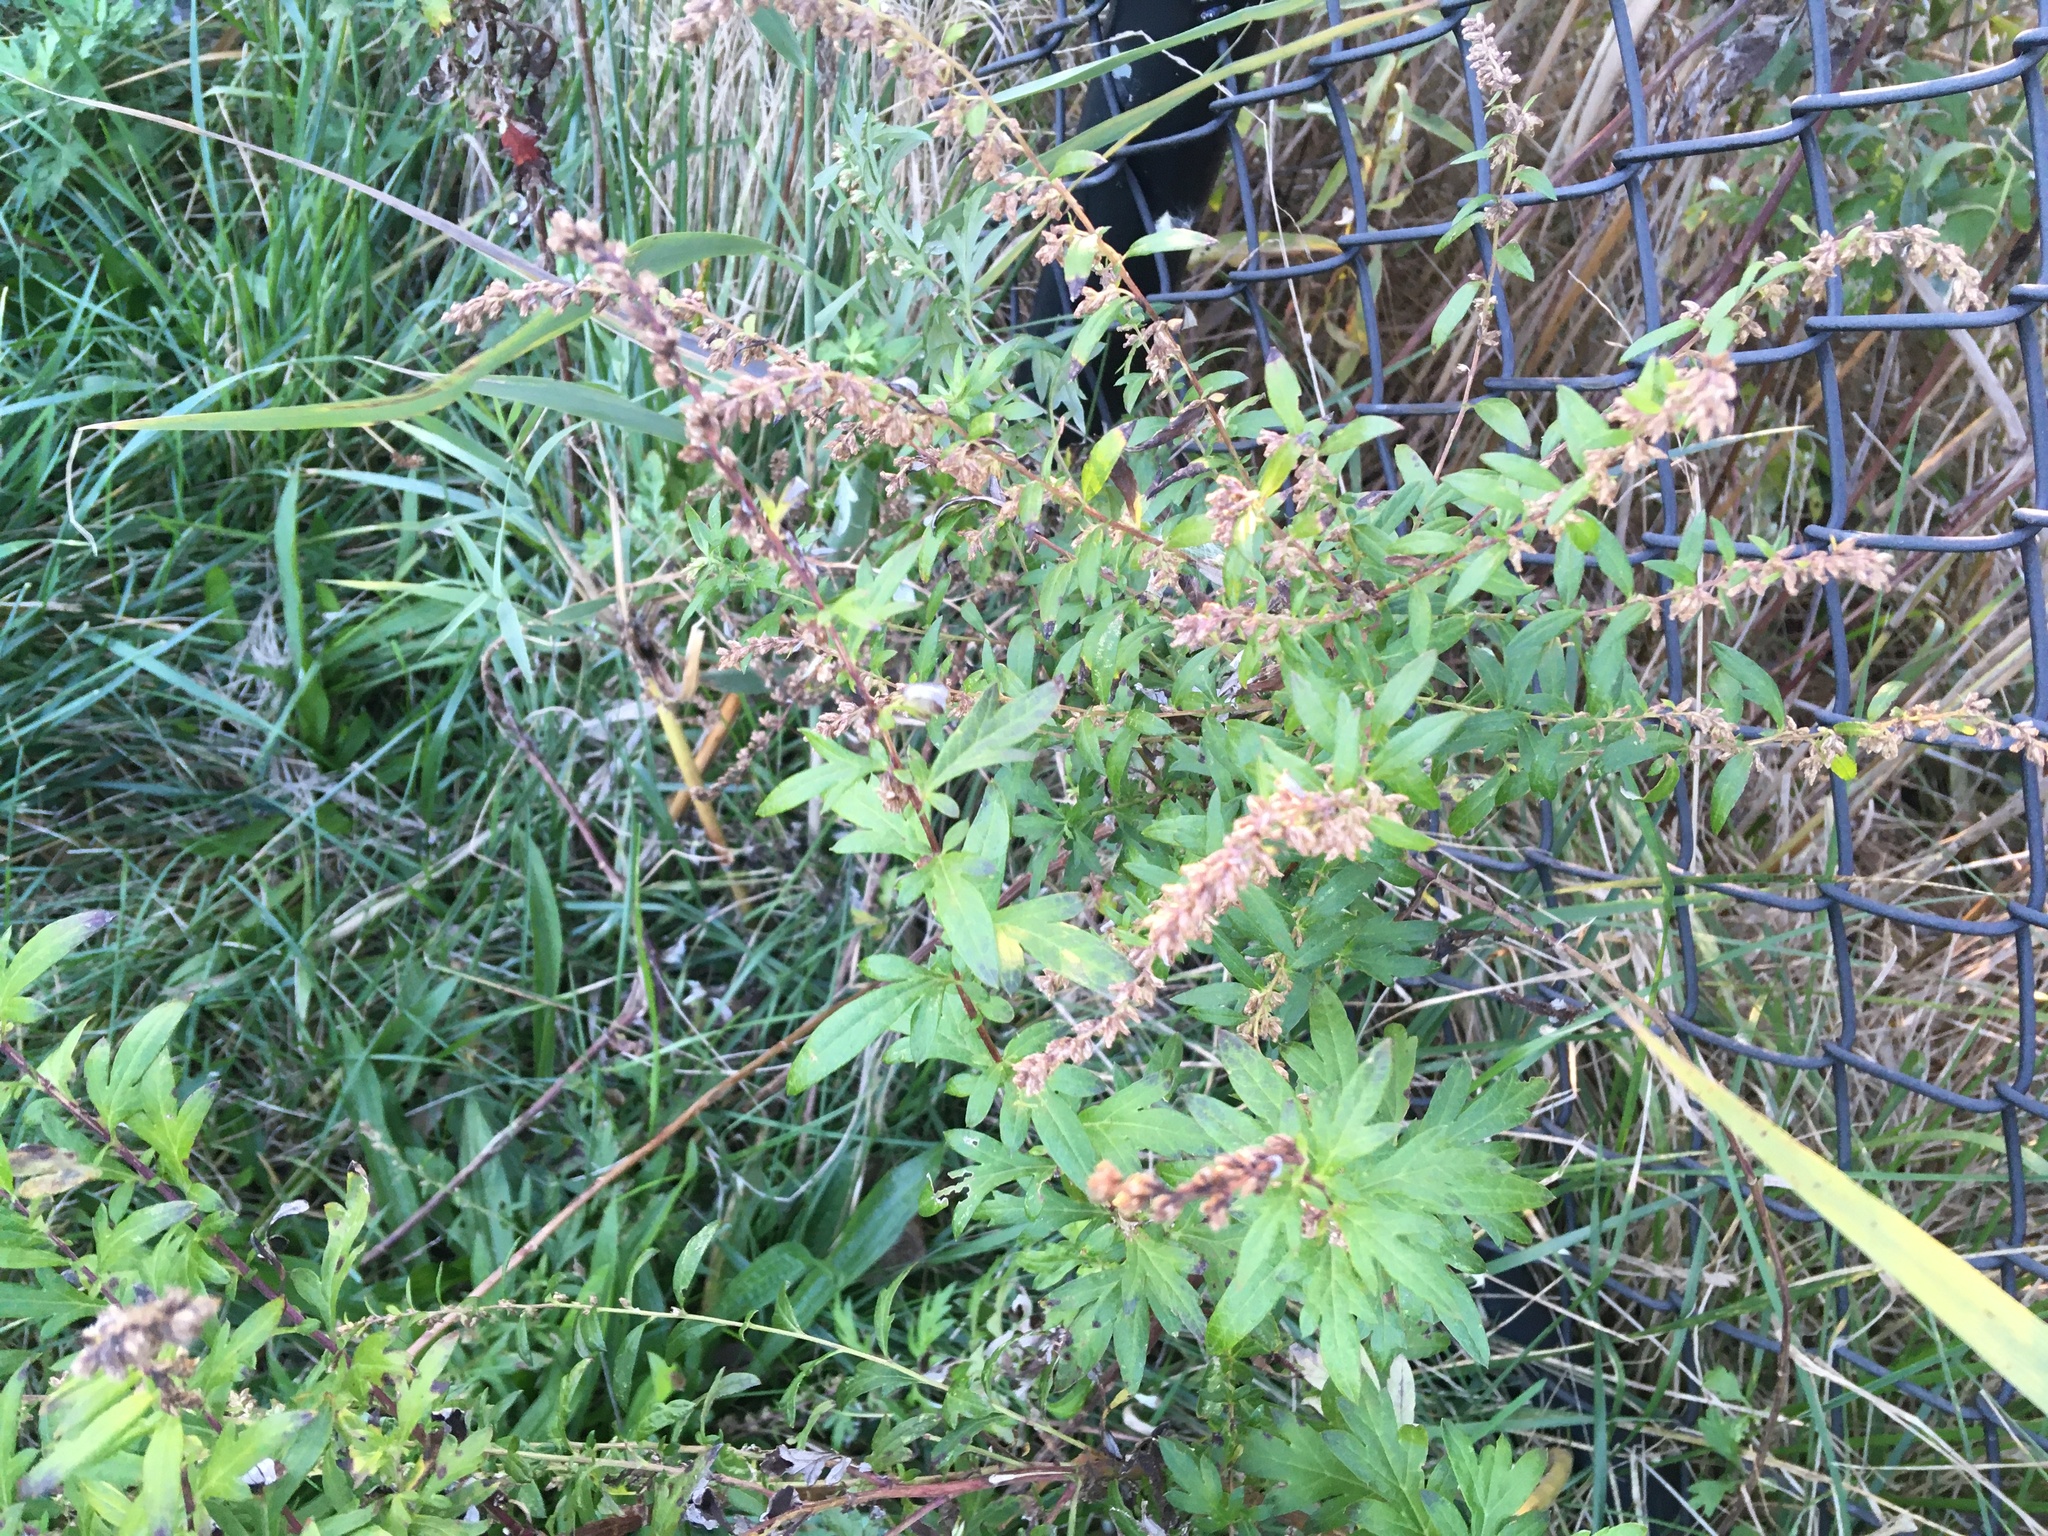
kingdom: Plantae
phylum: Tracheophyta
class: Magnoliopsida
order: Asterales
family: Asteraceae
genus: Artemisia
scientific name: Artemisia vulgaris
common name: Mugwort
